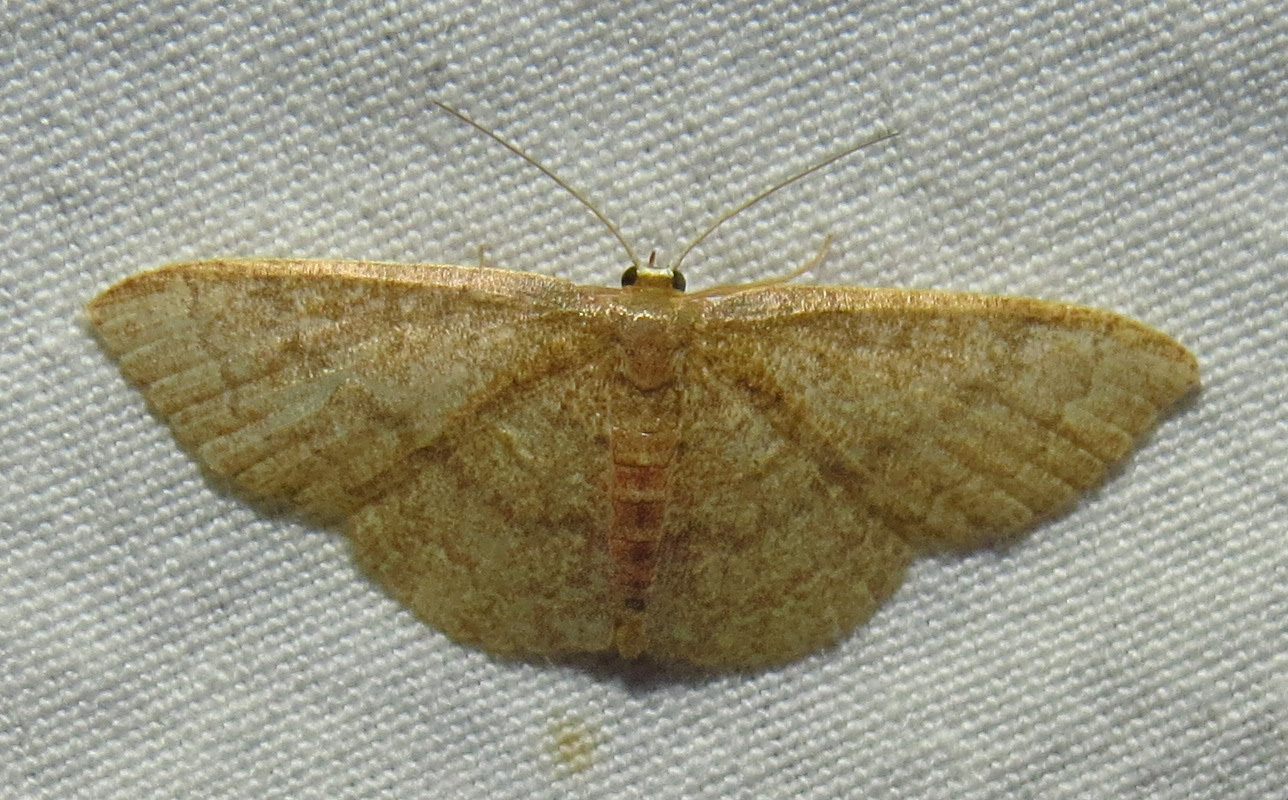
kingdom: Animalia
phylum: Arthropoda
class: Insecta
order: Lepidoptera
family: Geometridae
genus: Pleuroprucha
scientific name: Pleuroprucha insulsaria
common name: Common tan wave
